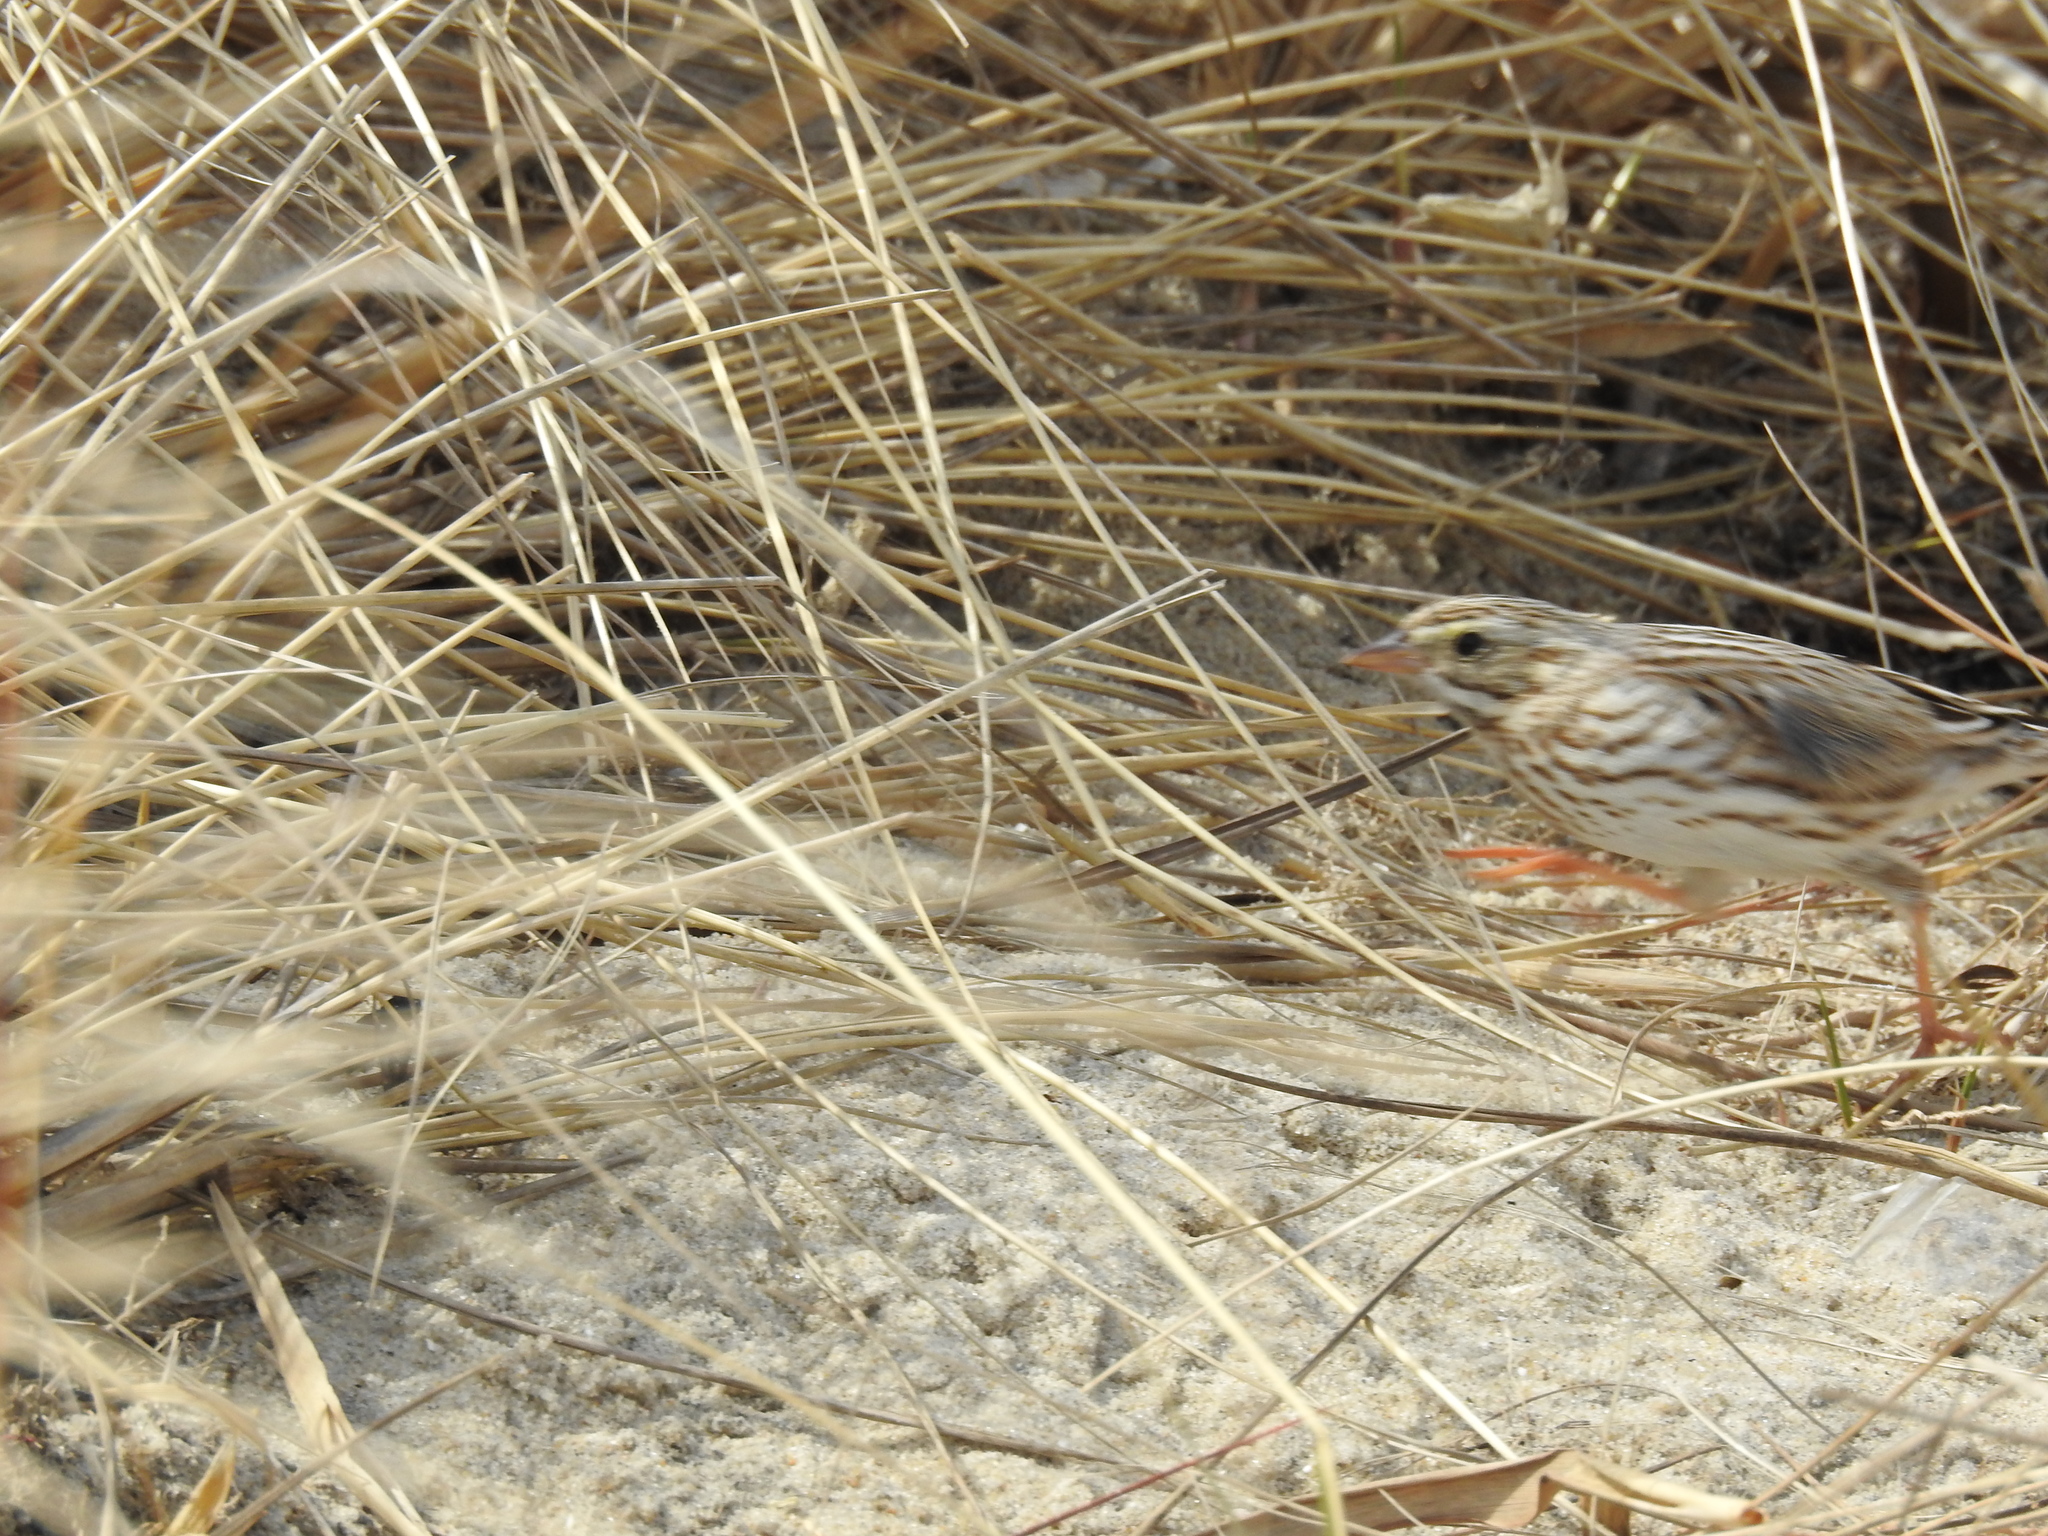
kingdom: Animalia
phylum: Chordata
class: Aves
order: Passeriformes
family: Passerellidae
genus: Passerculus
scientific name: Passerculus sandwichensis
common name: Savannah sparrow
